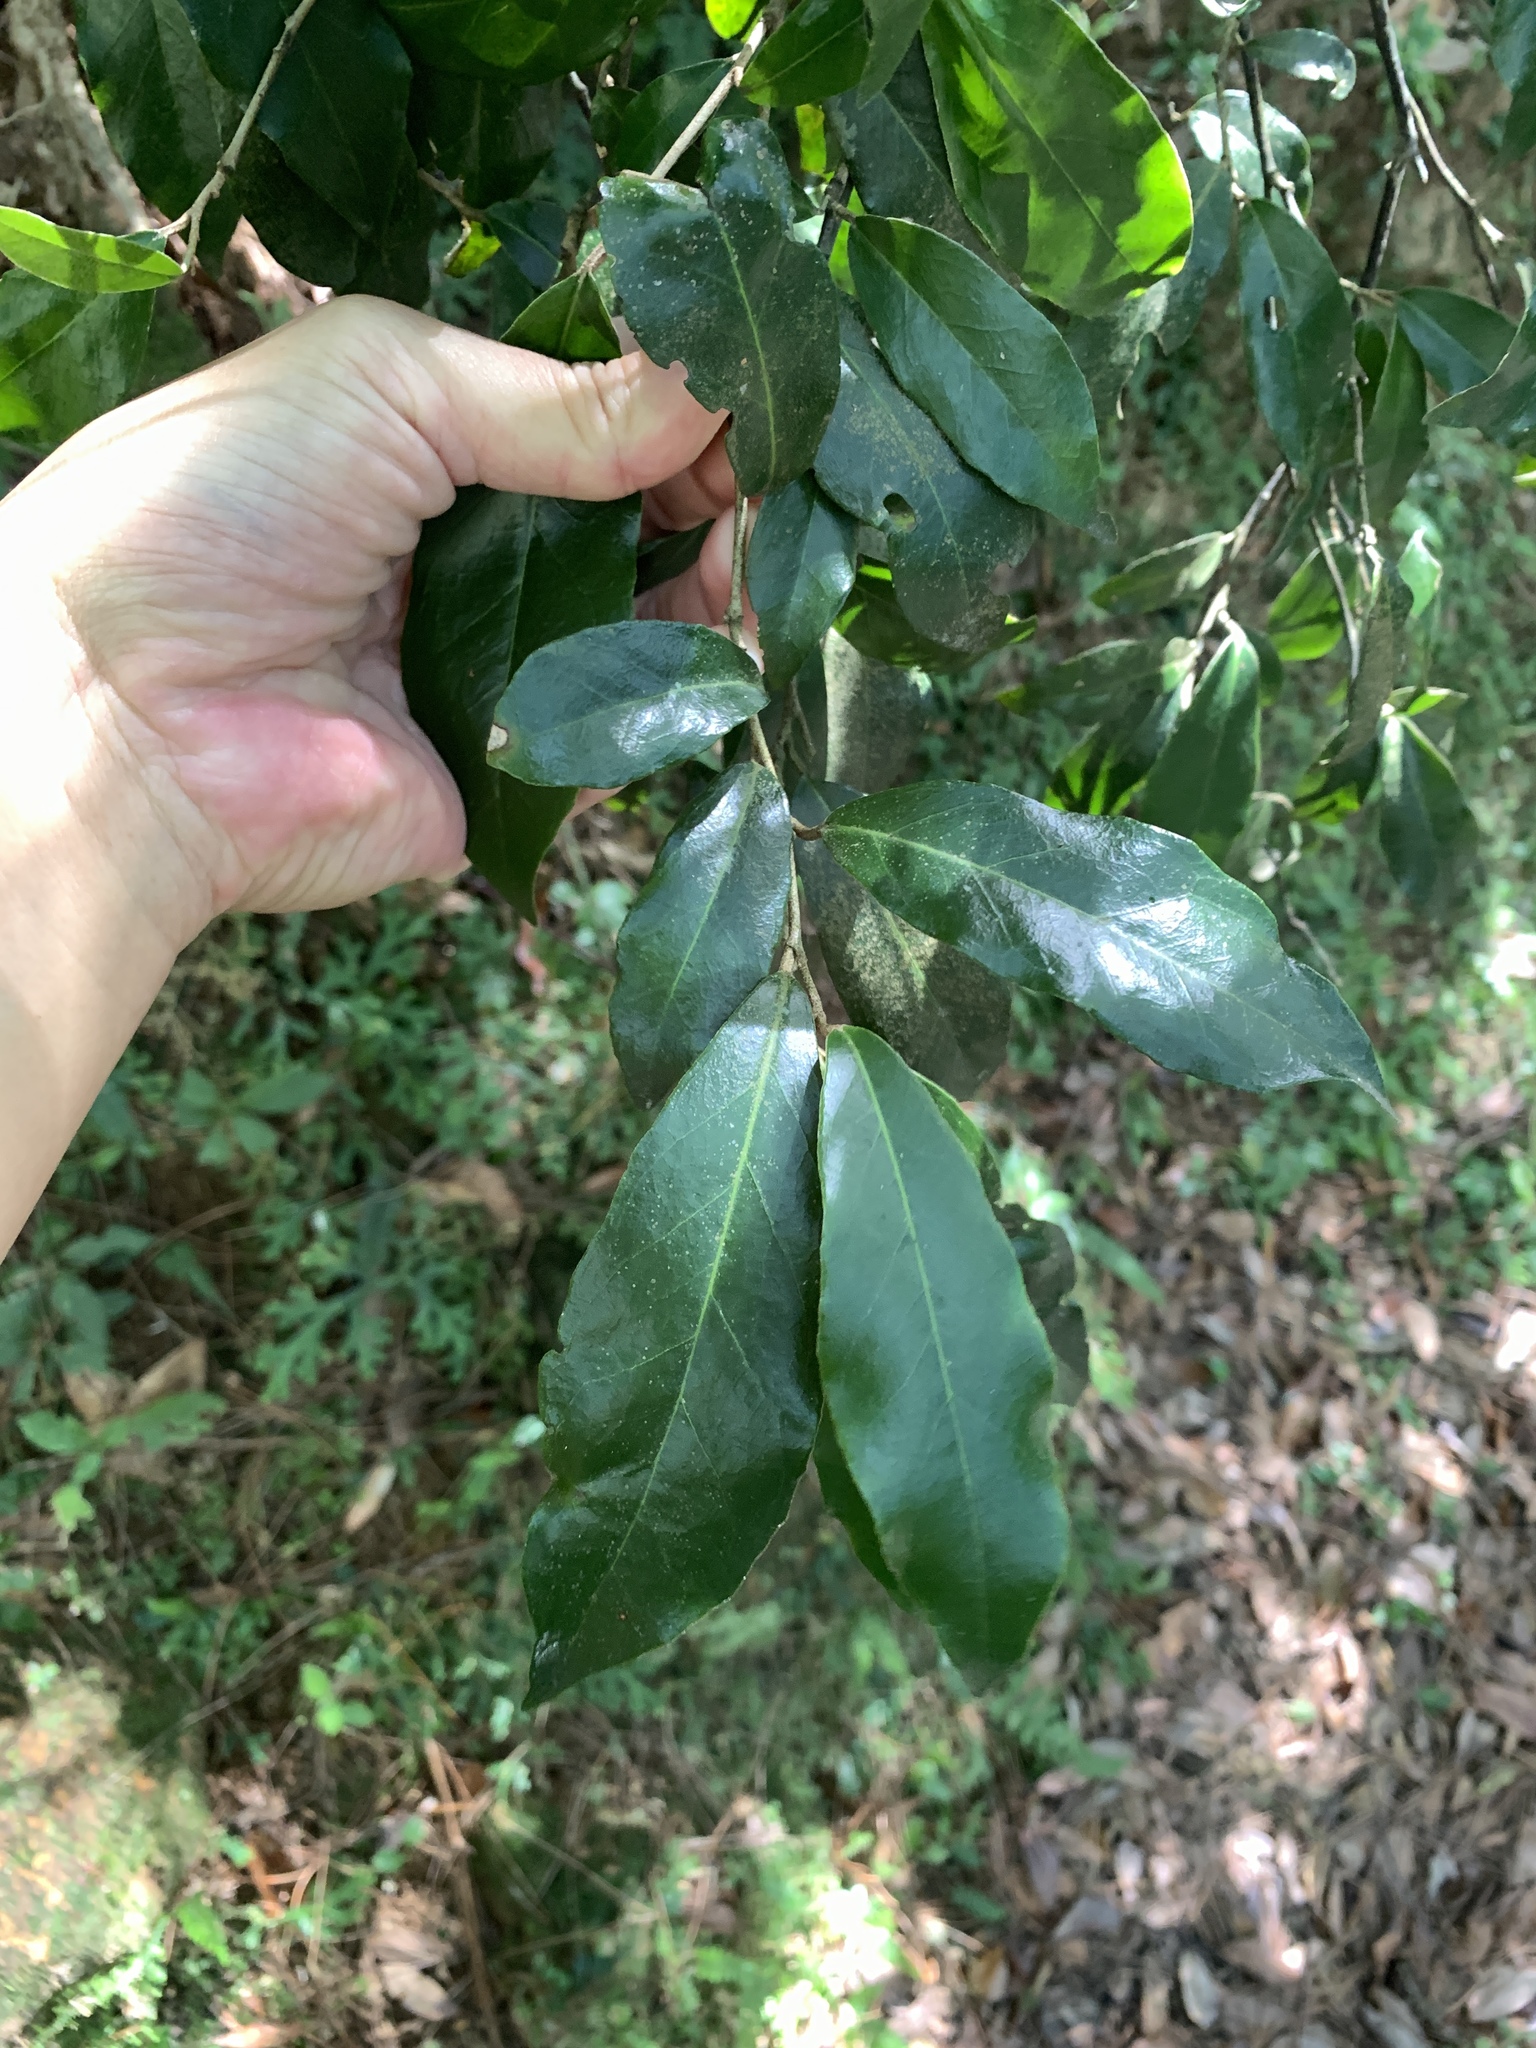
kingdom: Plantae
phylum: Tracheophyta
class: Magnoliopsida
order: Rosales
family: Elaeagnaceae
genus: Elaeagnus
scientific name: Elaeagnus formosana
